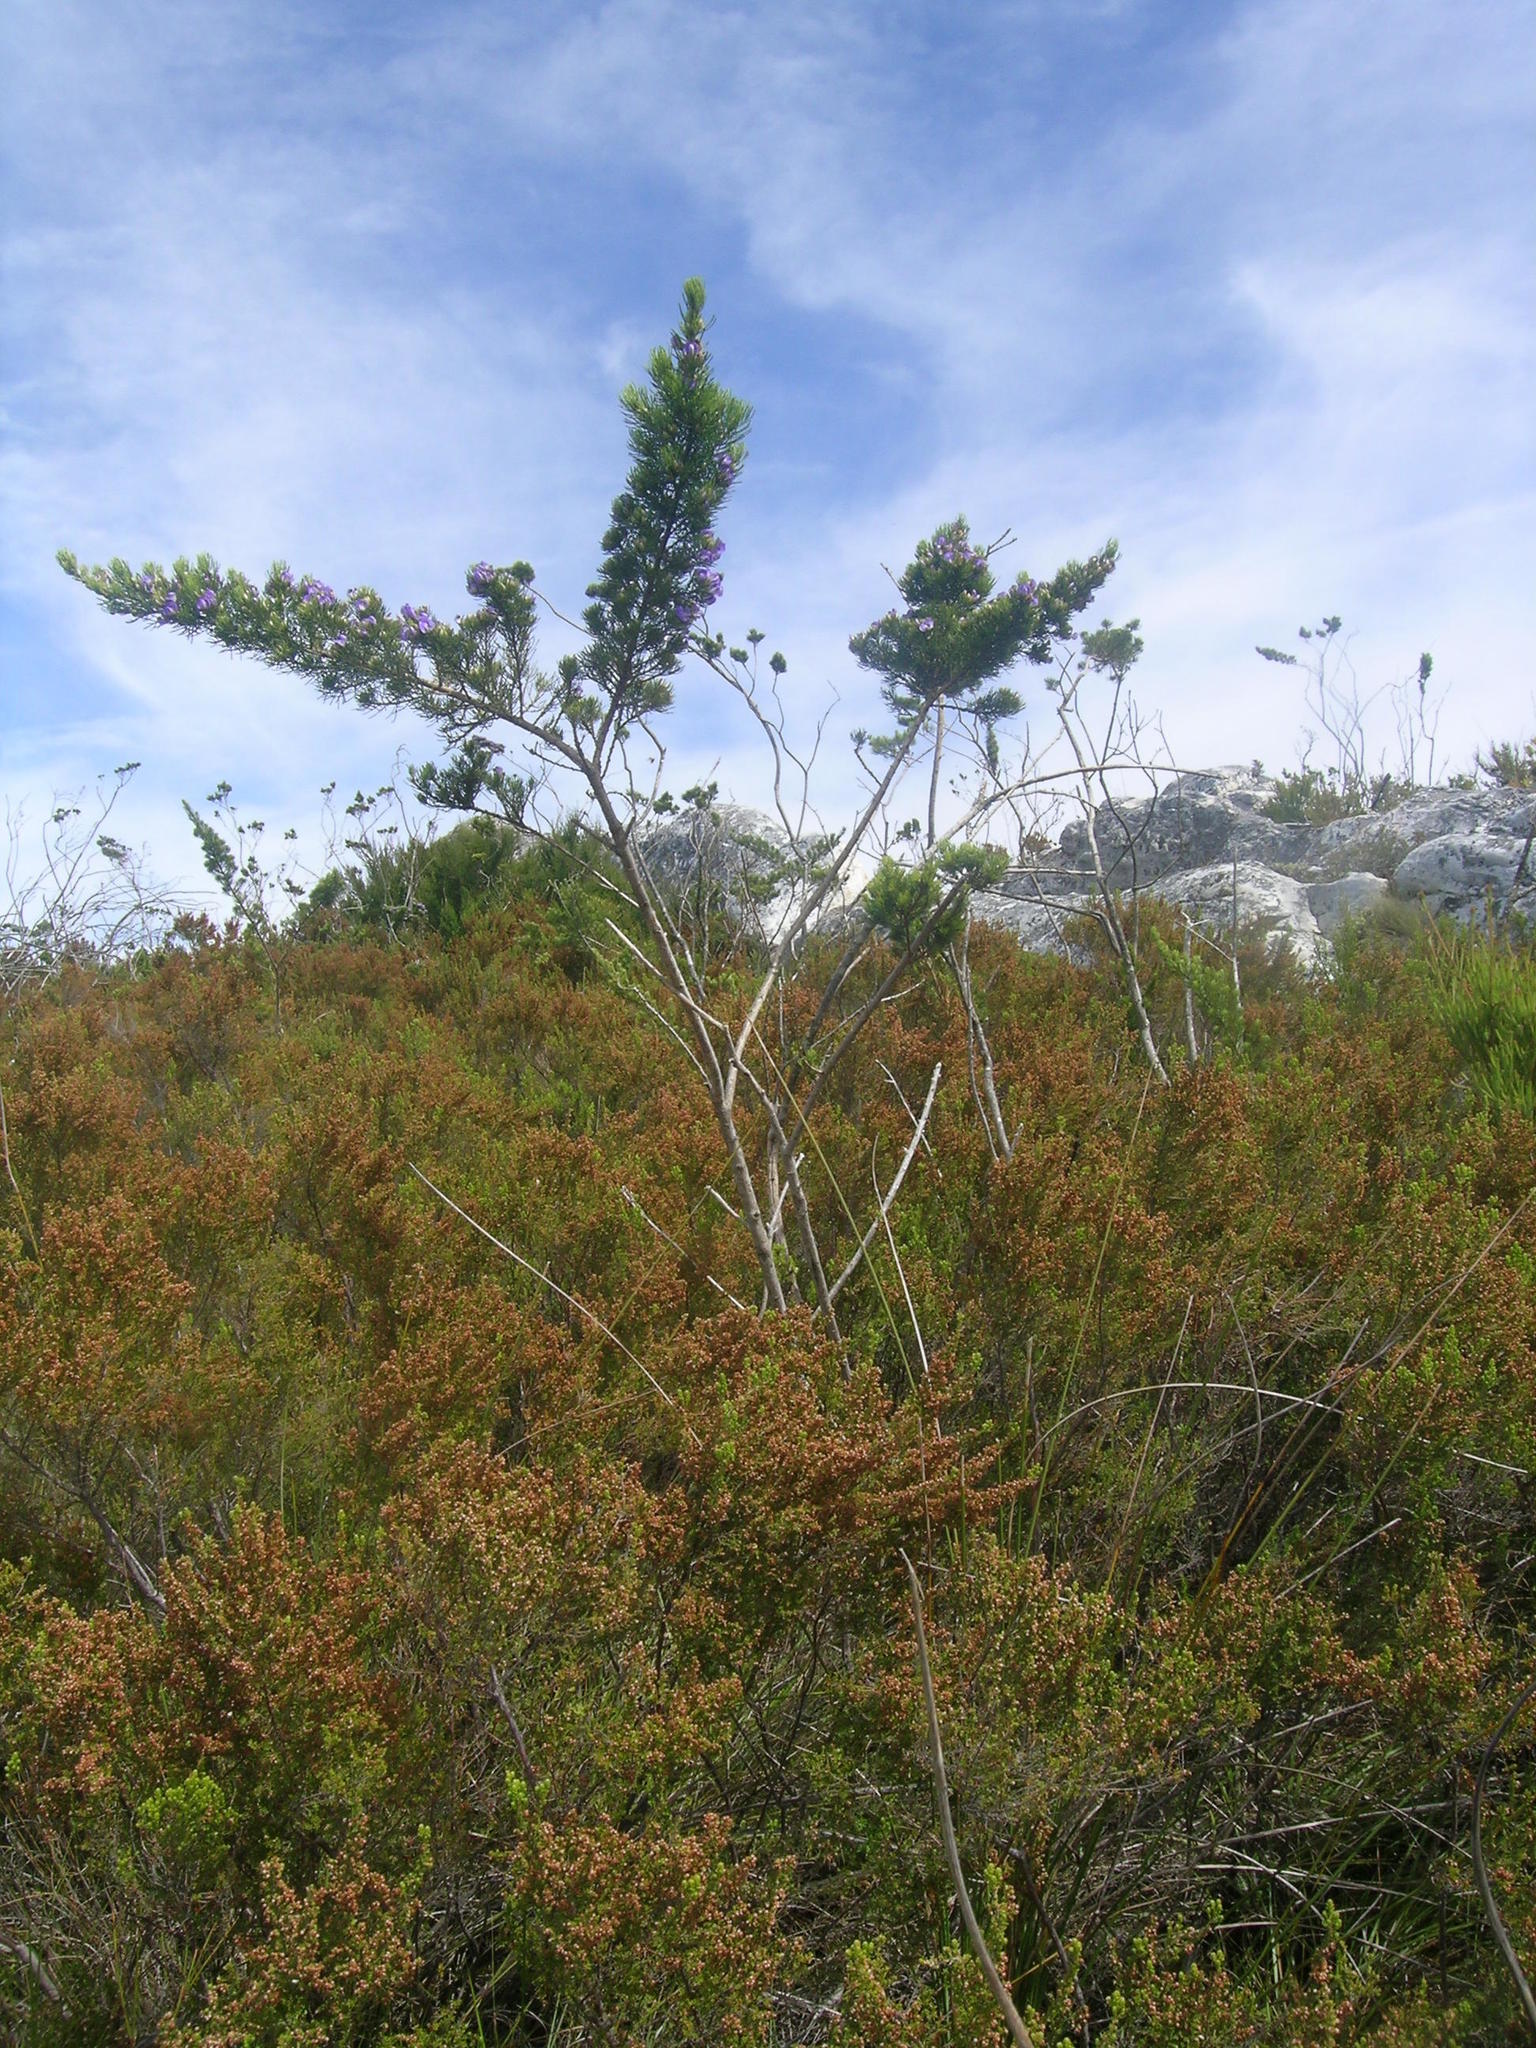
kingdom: Plantae
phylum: Tracheophyta
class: Magnoliopsida
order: Fabales
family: Fabaceae
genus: Psoralea
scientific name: Psoralea speciosa
